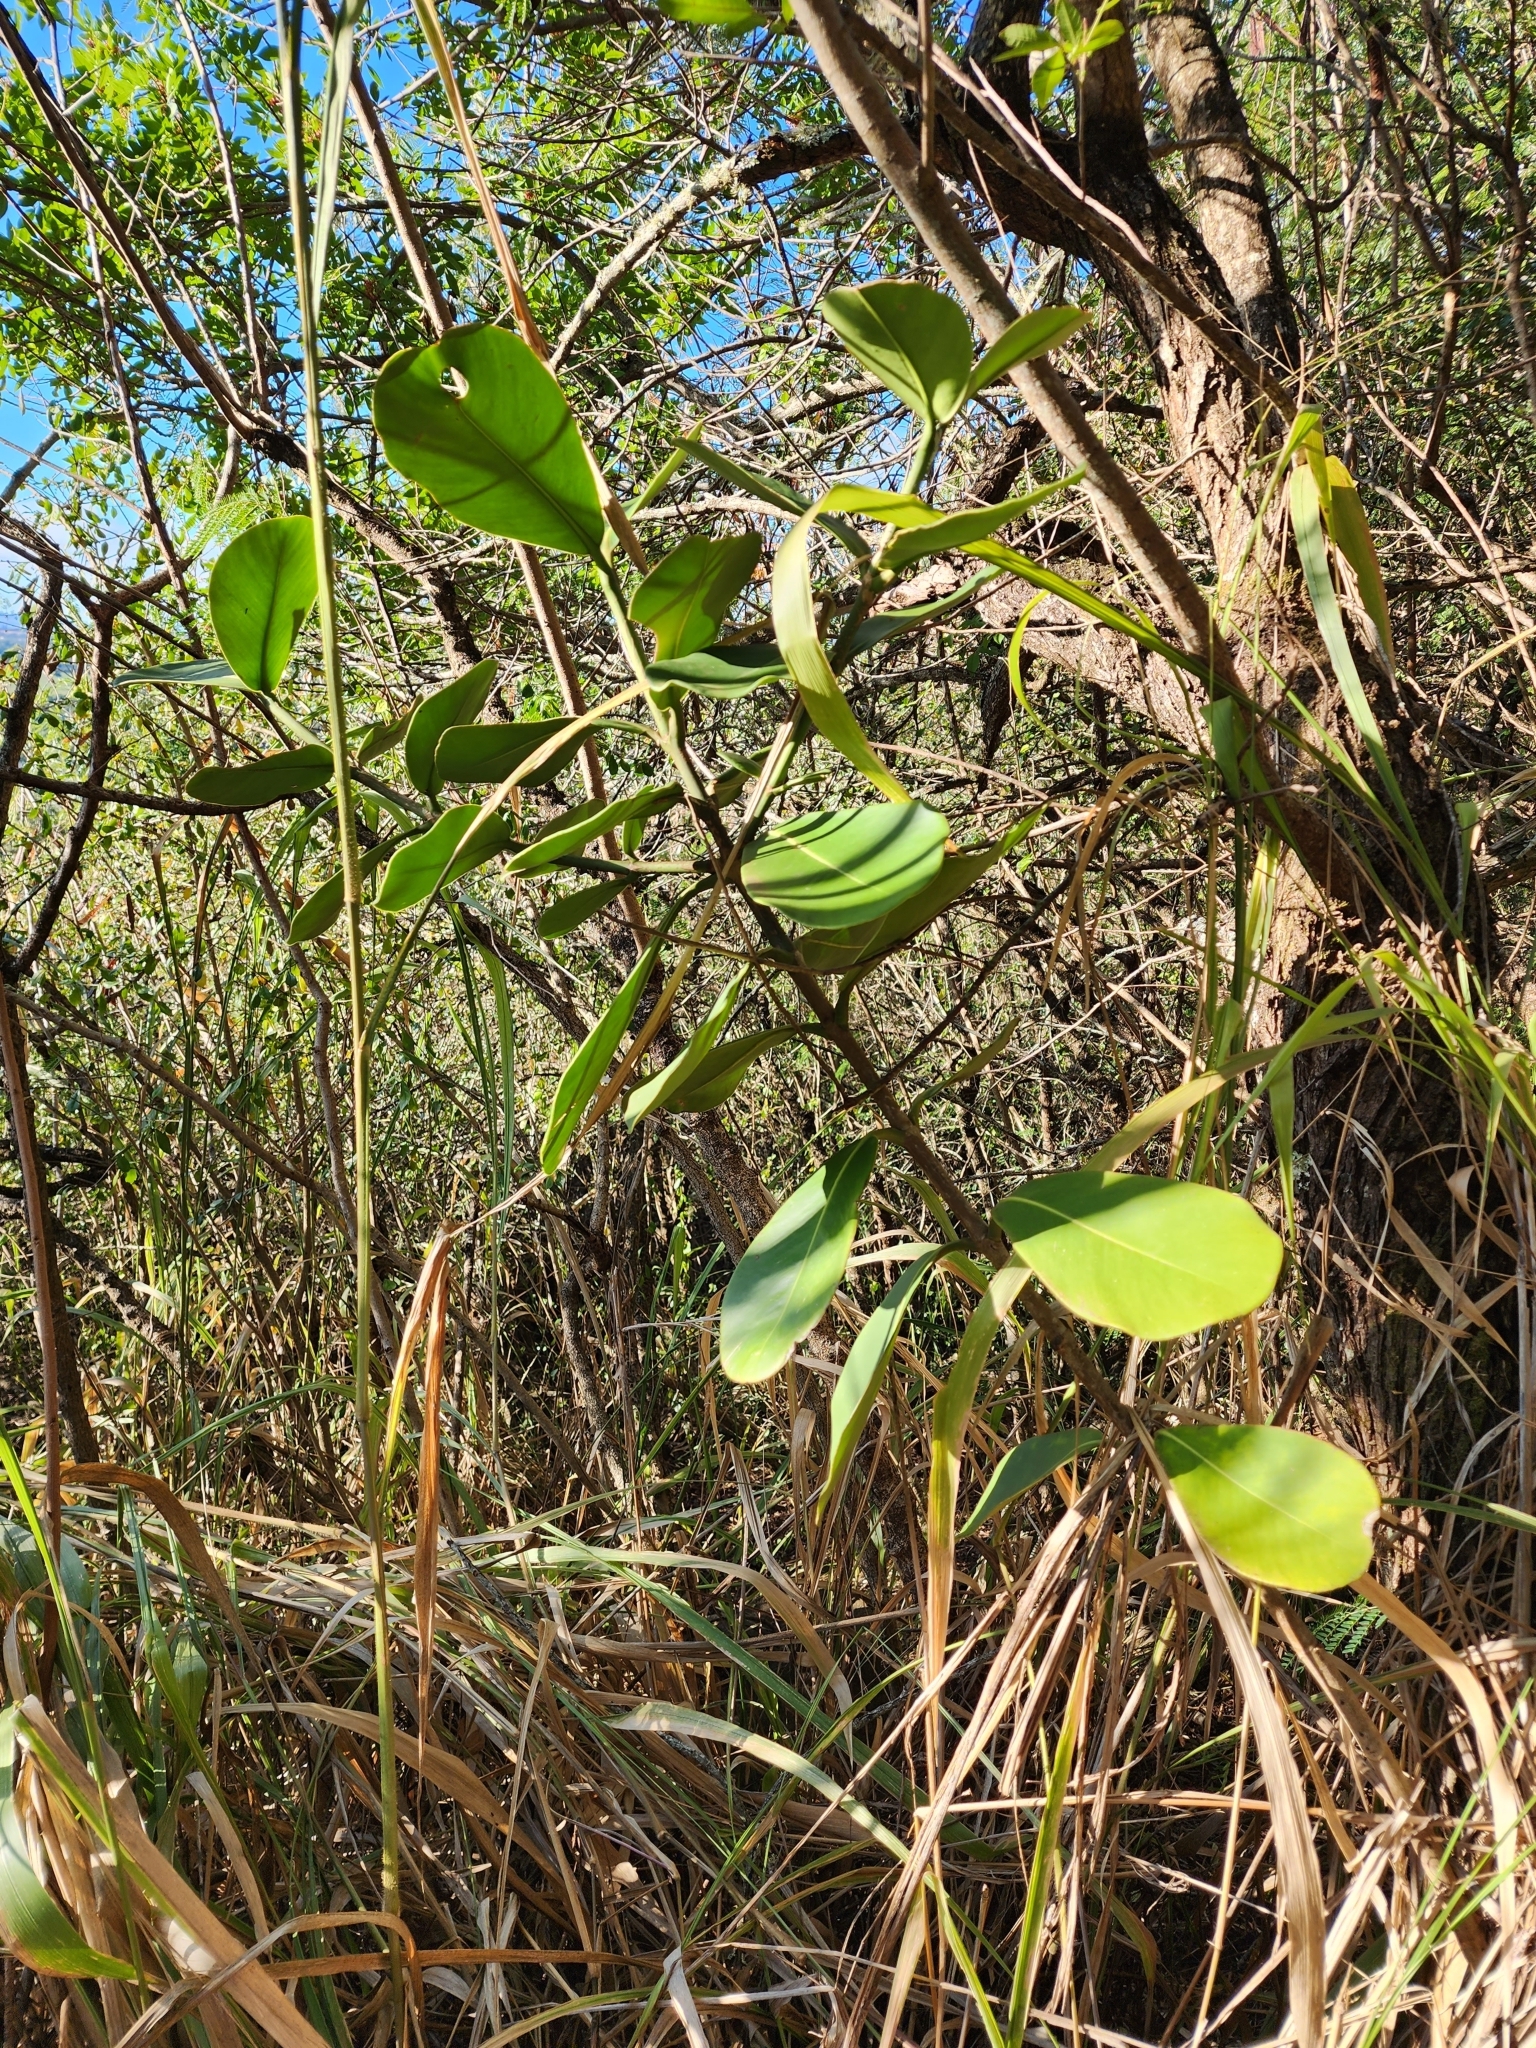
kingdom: Plantae
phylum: Tracheophyta
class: Magnoliopsida
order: Malpighiales
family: Clusiaceae
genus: Clusia
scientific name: Clusia rosea
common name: Scotch attorney
